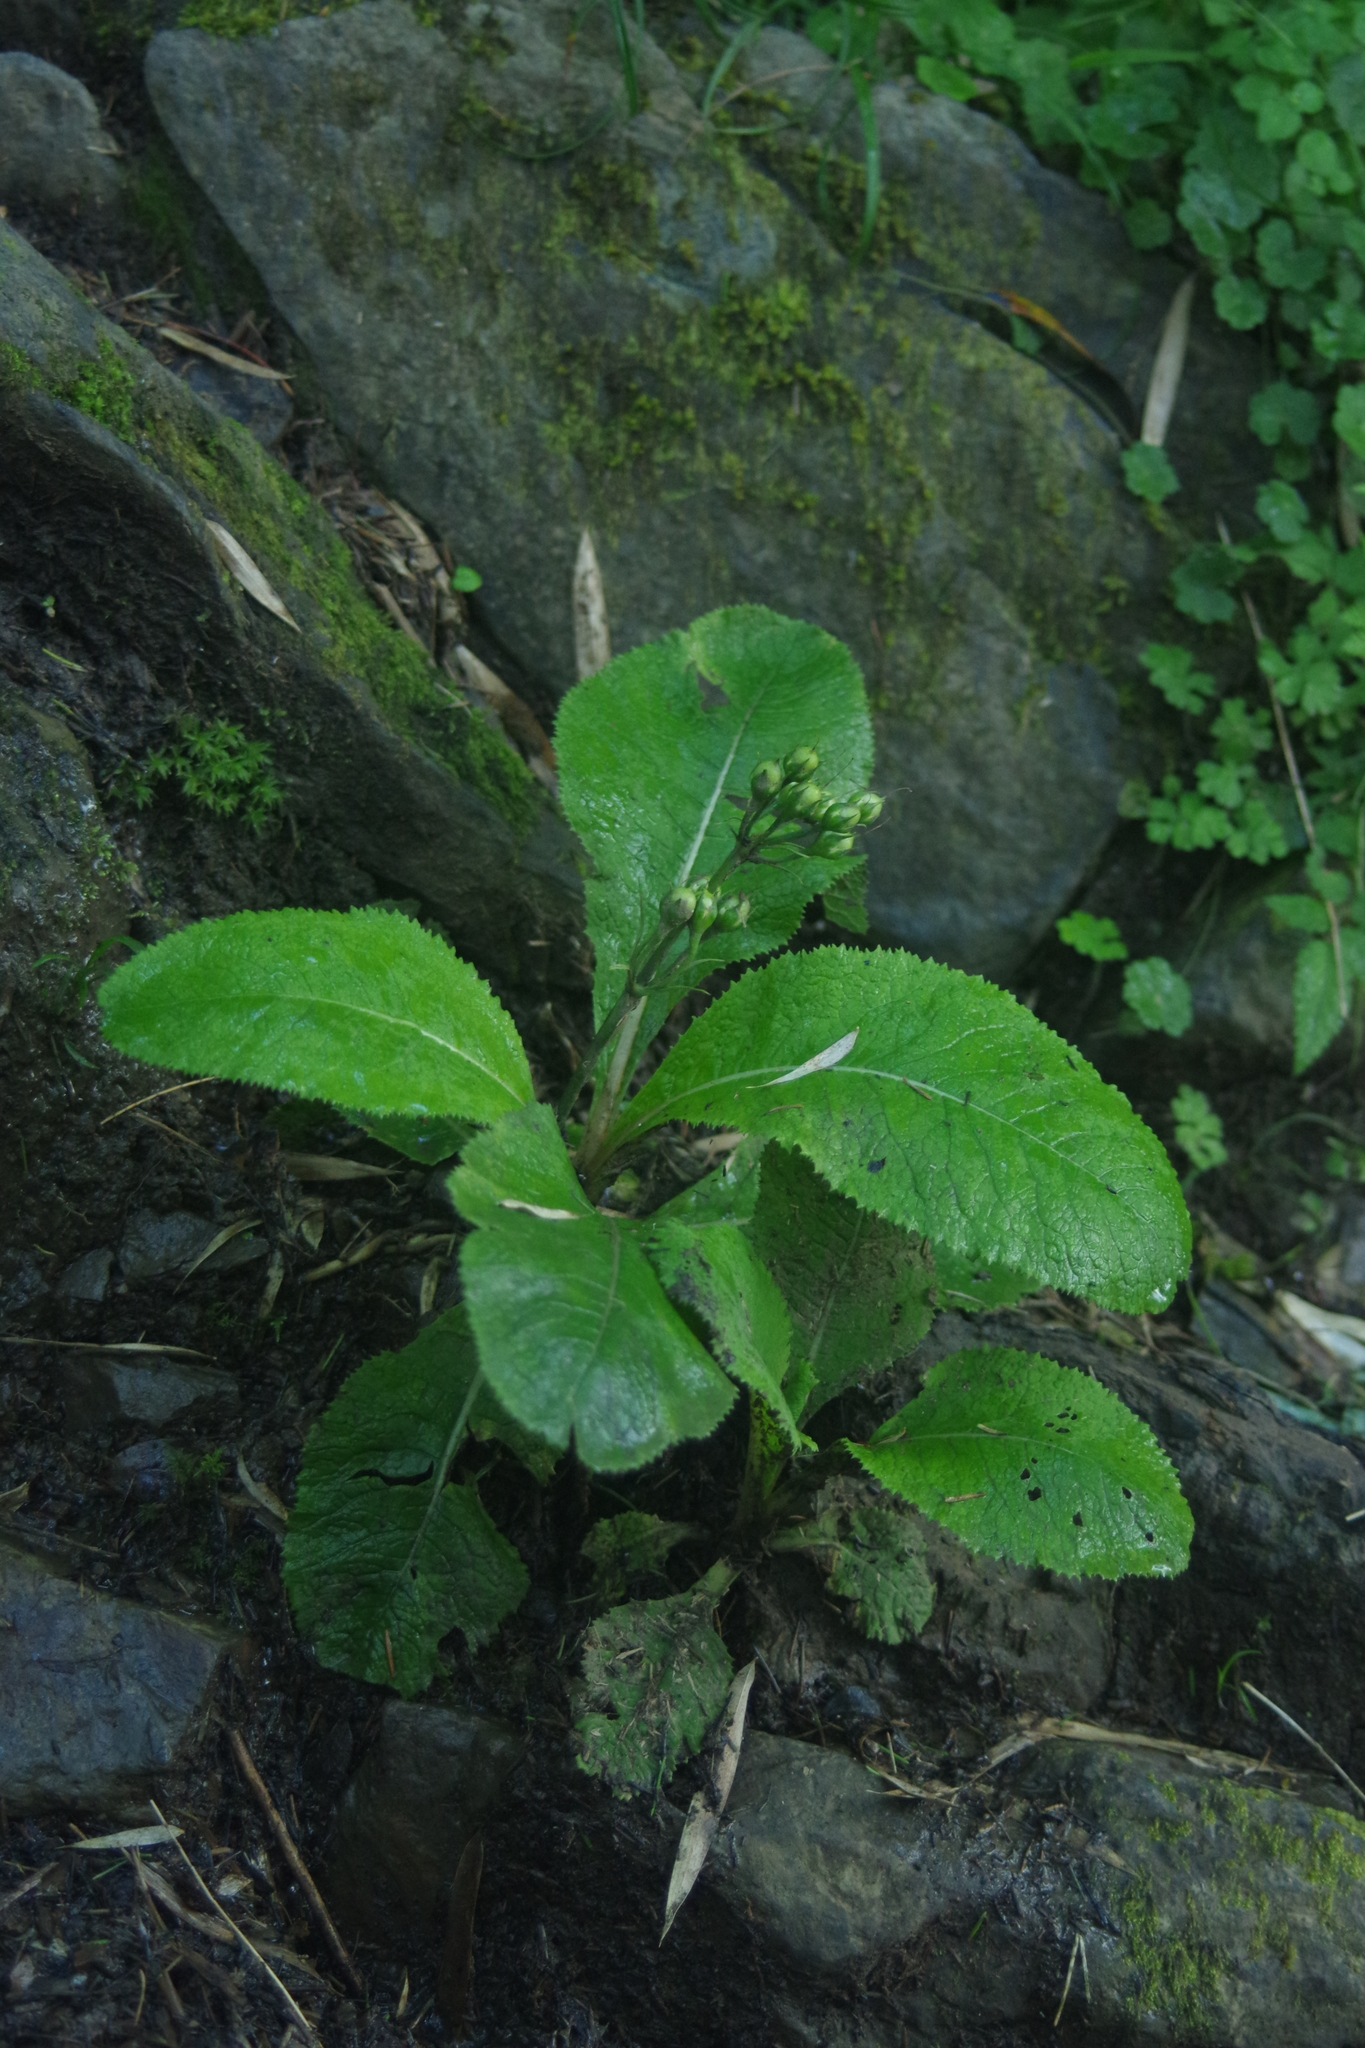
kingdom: Plantae
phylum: Tracheophyta
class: Magnoliopsida
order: Ericales
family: Primulaceae
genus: Primula
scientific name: Primula miyabeana
